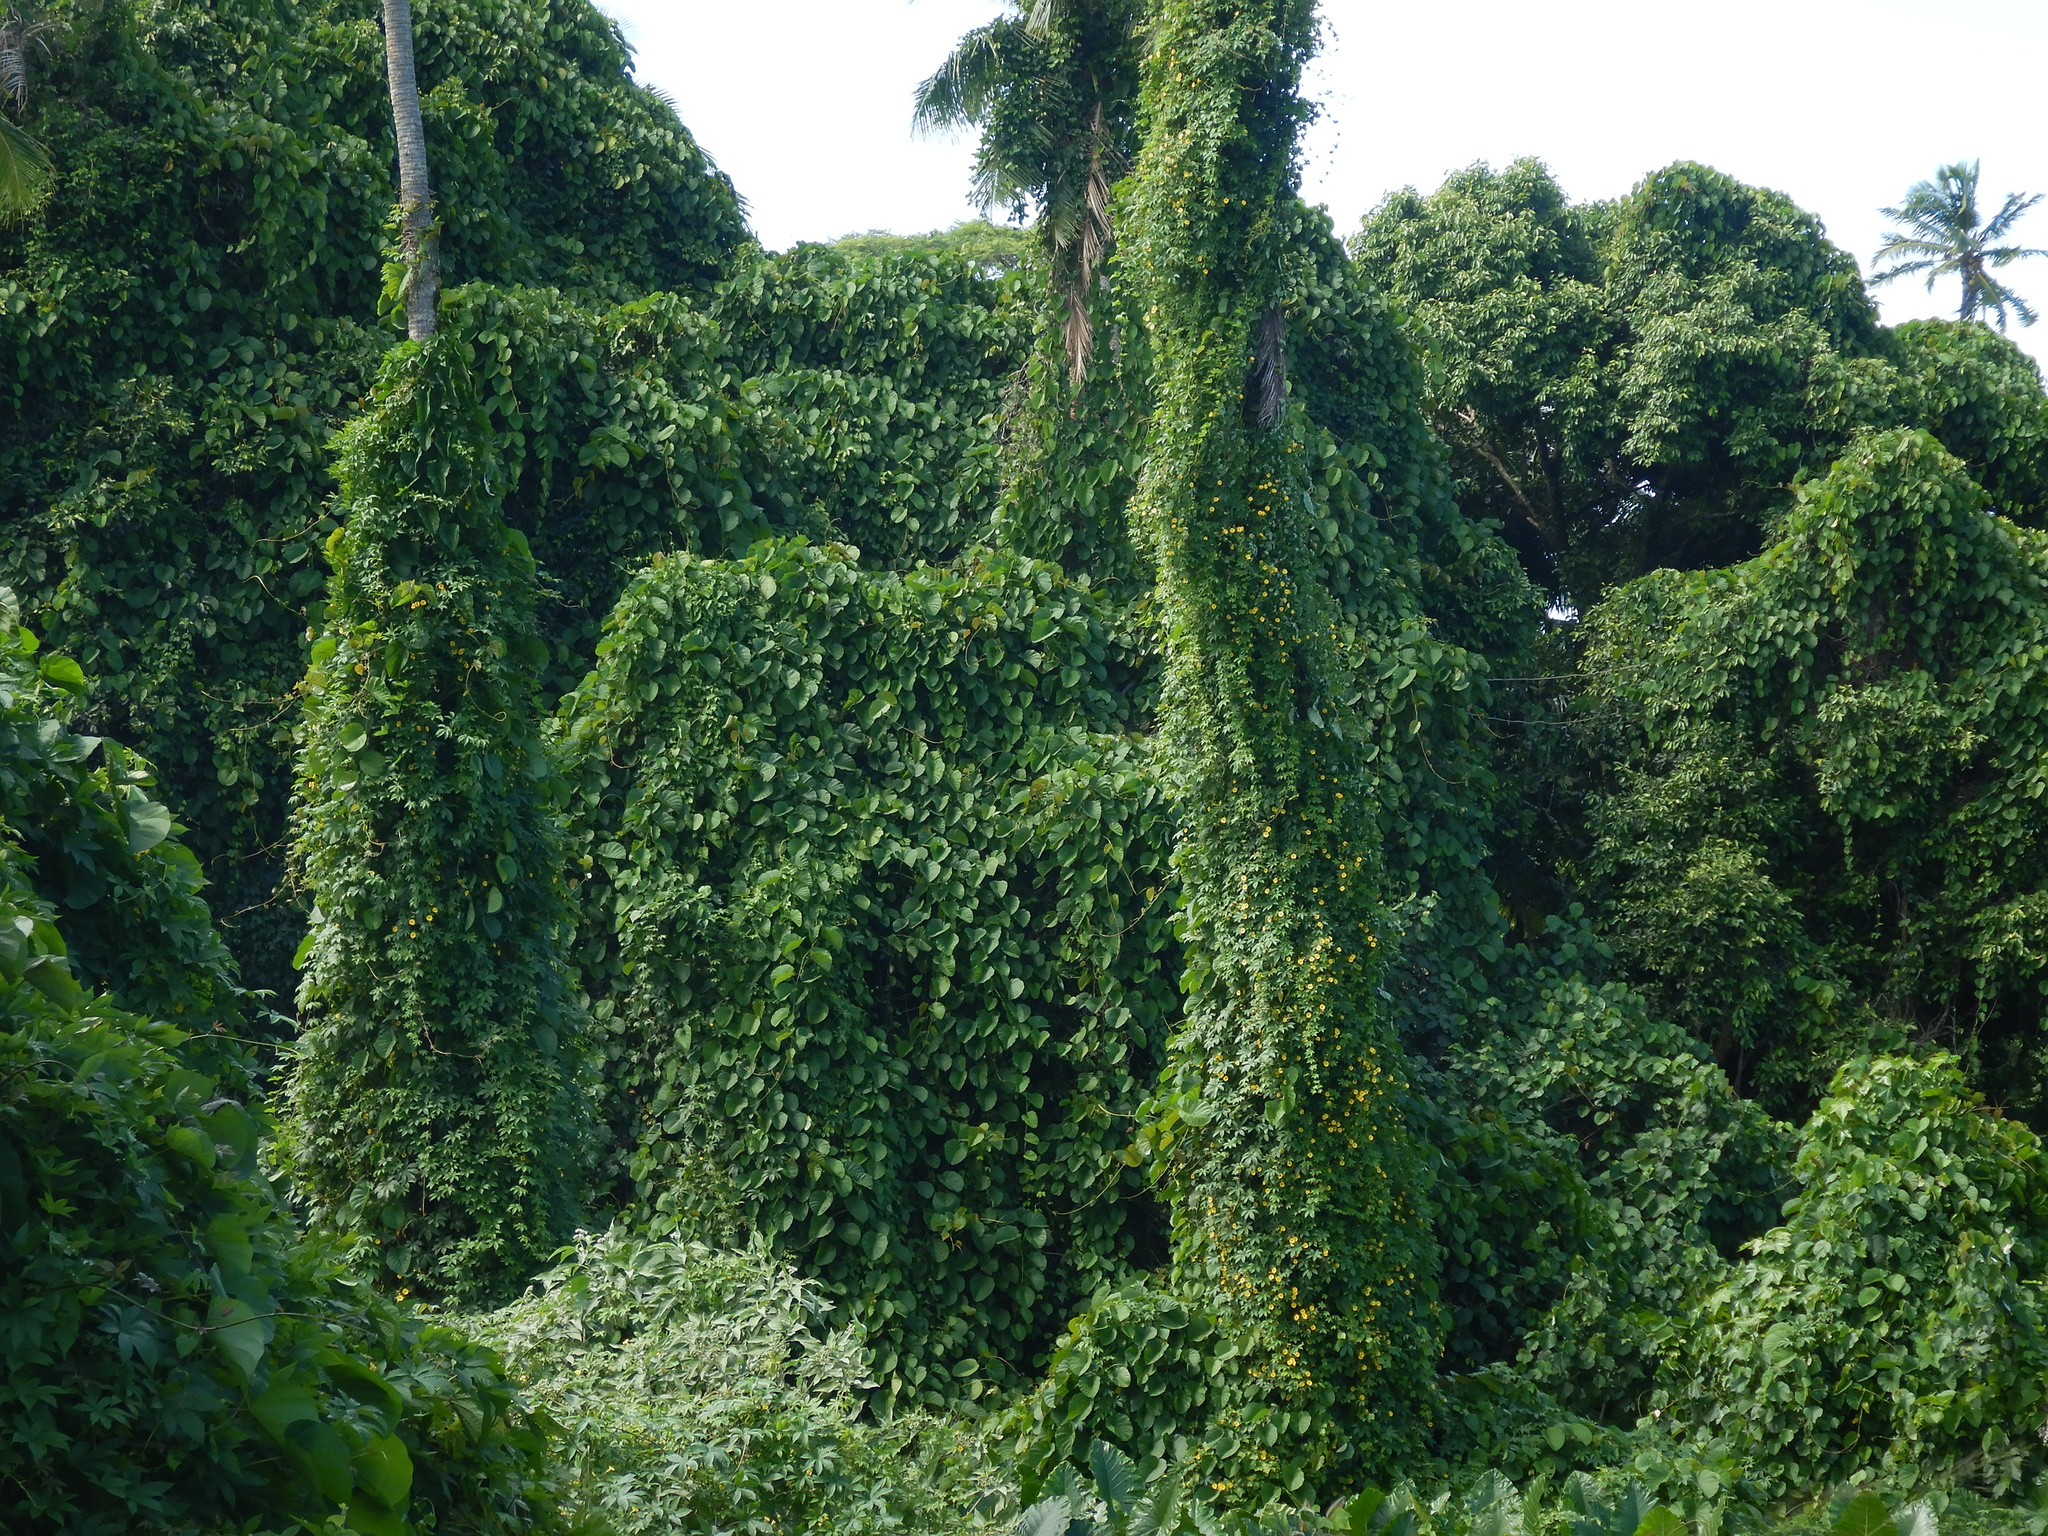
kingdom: Plantae
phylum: Tracheophyta
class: Magnoliopsida
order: Solanales
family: Convolvulaceae
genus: Decalobanthus
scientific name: Decalobanthus peltatus
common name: Merremia
